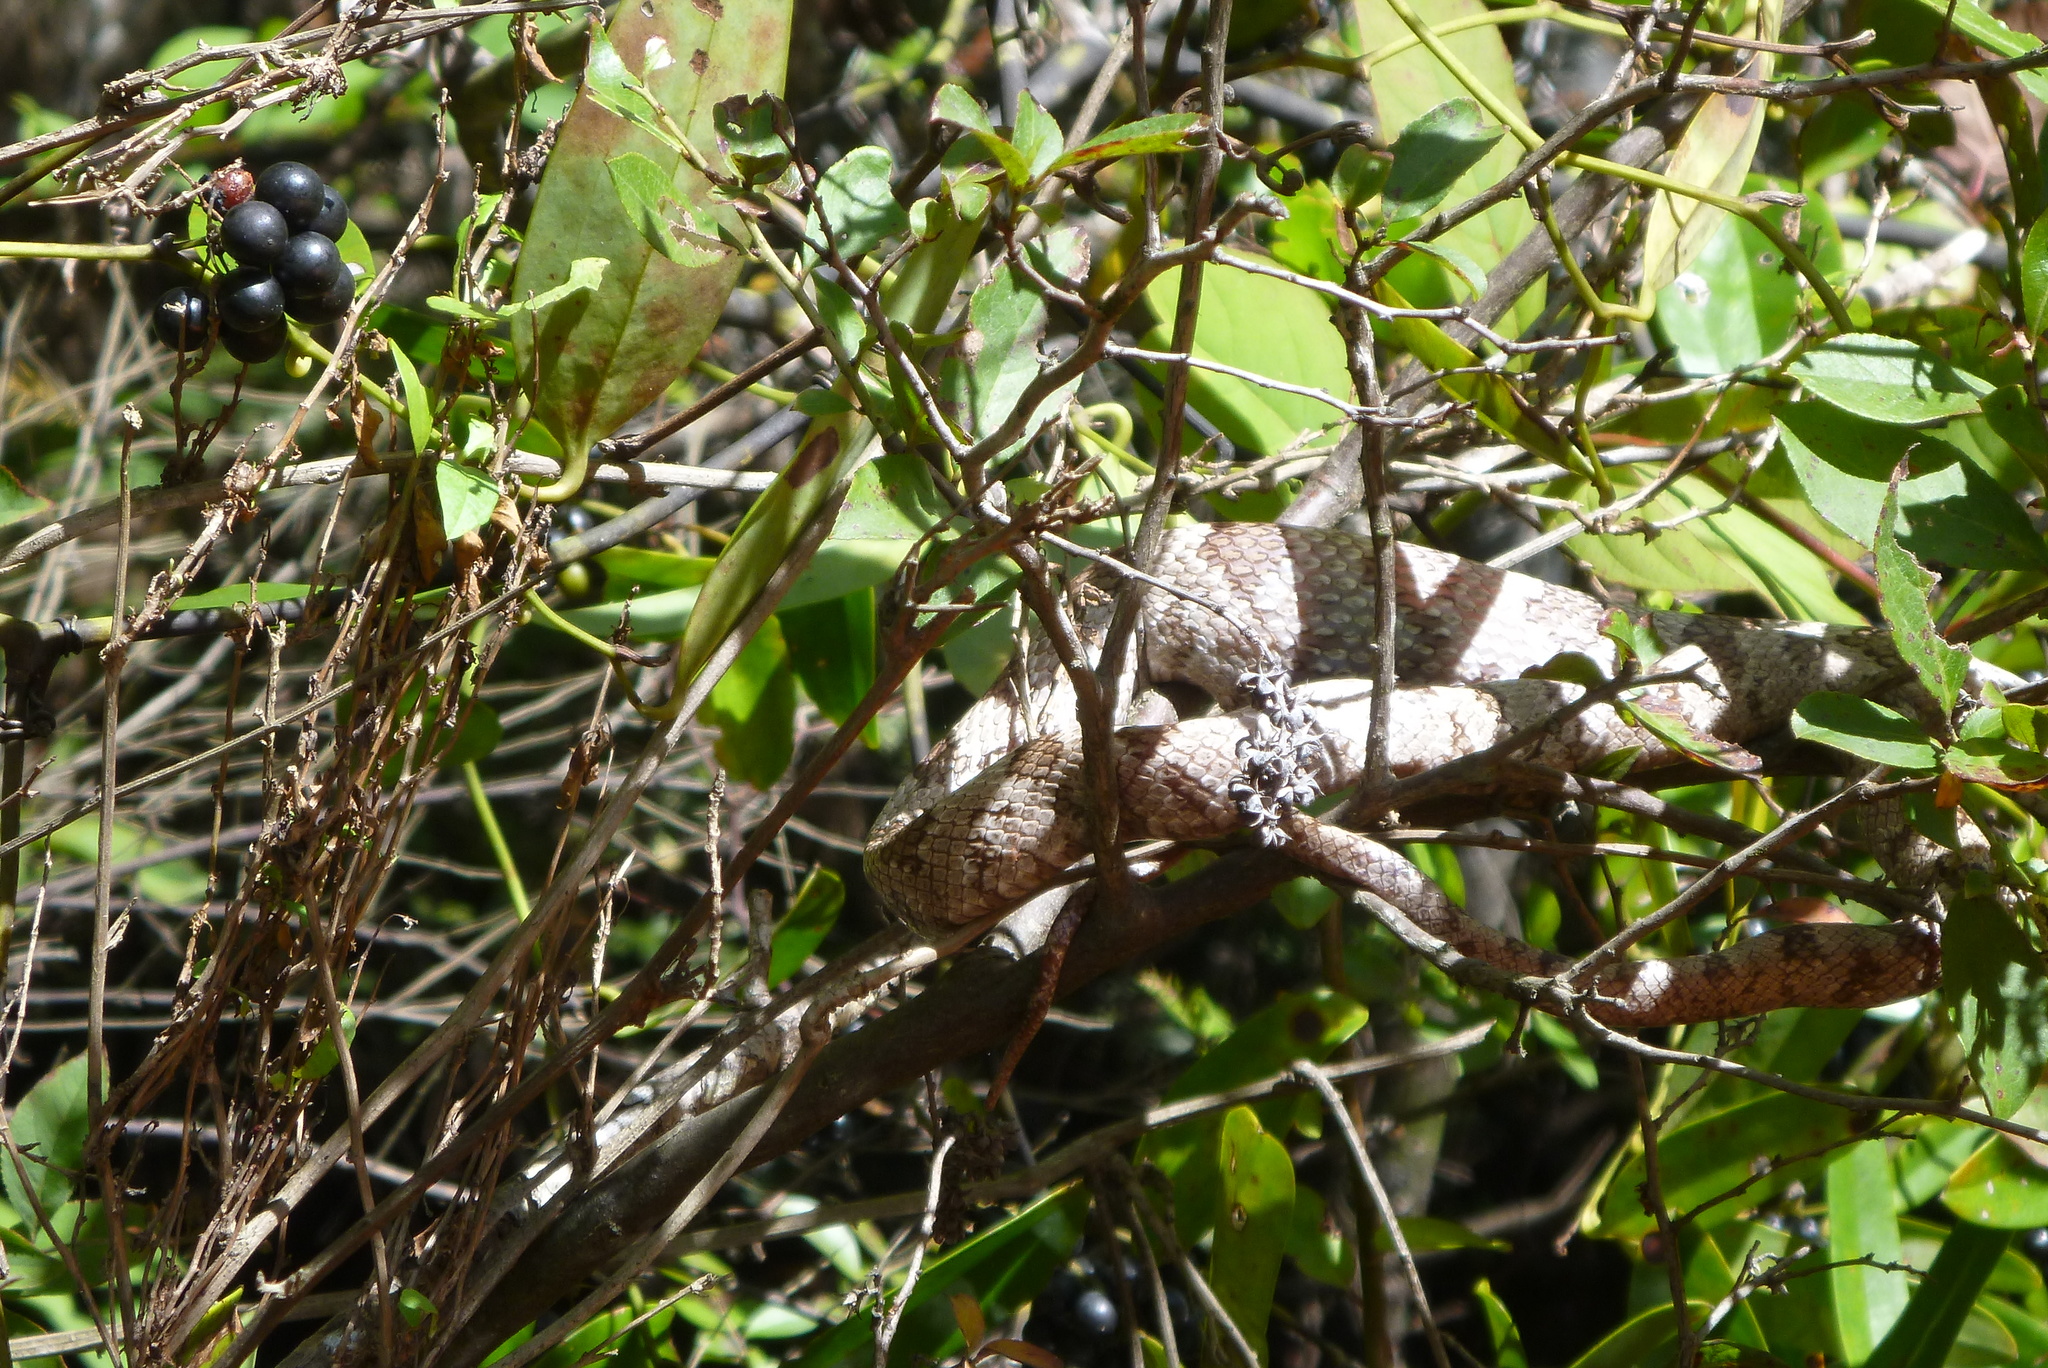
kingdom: Animalia
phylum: Chordata
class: Squamata
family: Colubridae
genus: Pantherophis
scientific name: Pantherophis spiloides
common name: Gray rat snake
